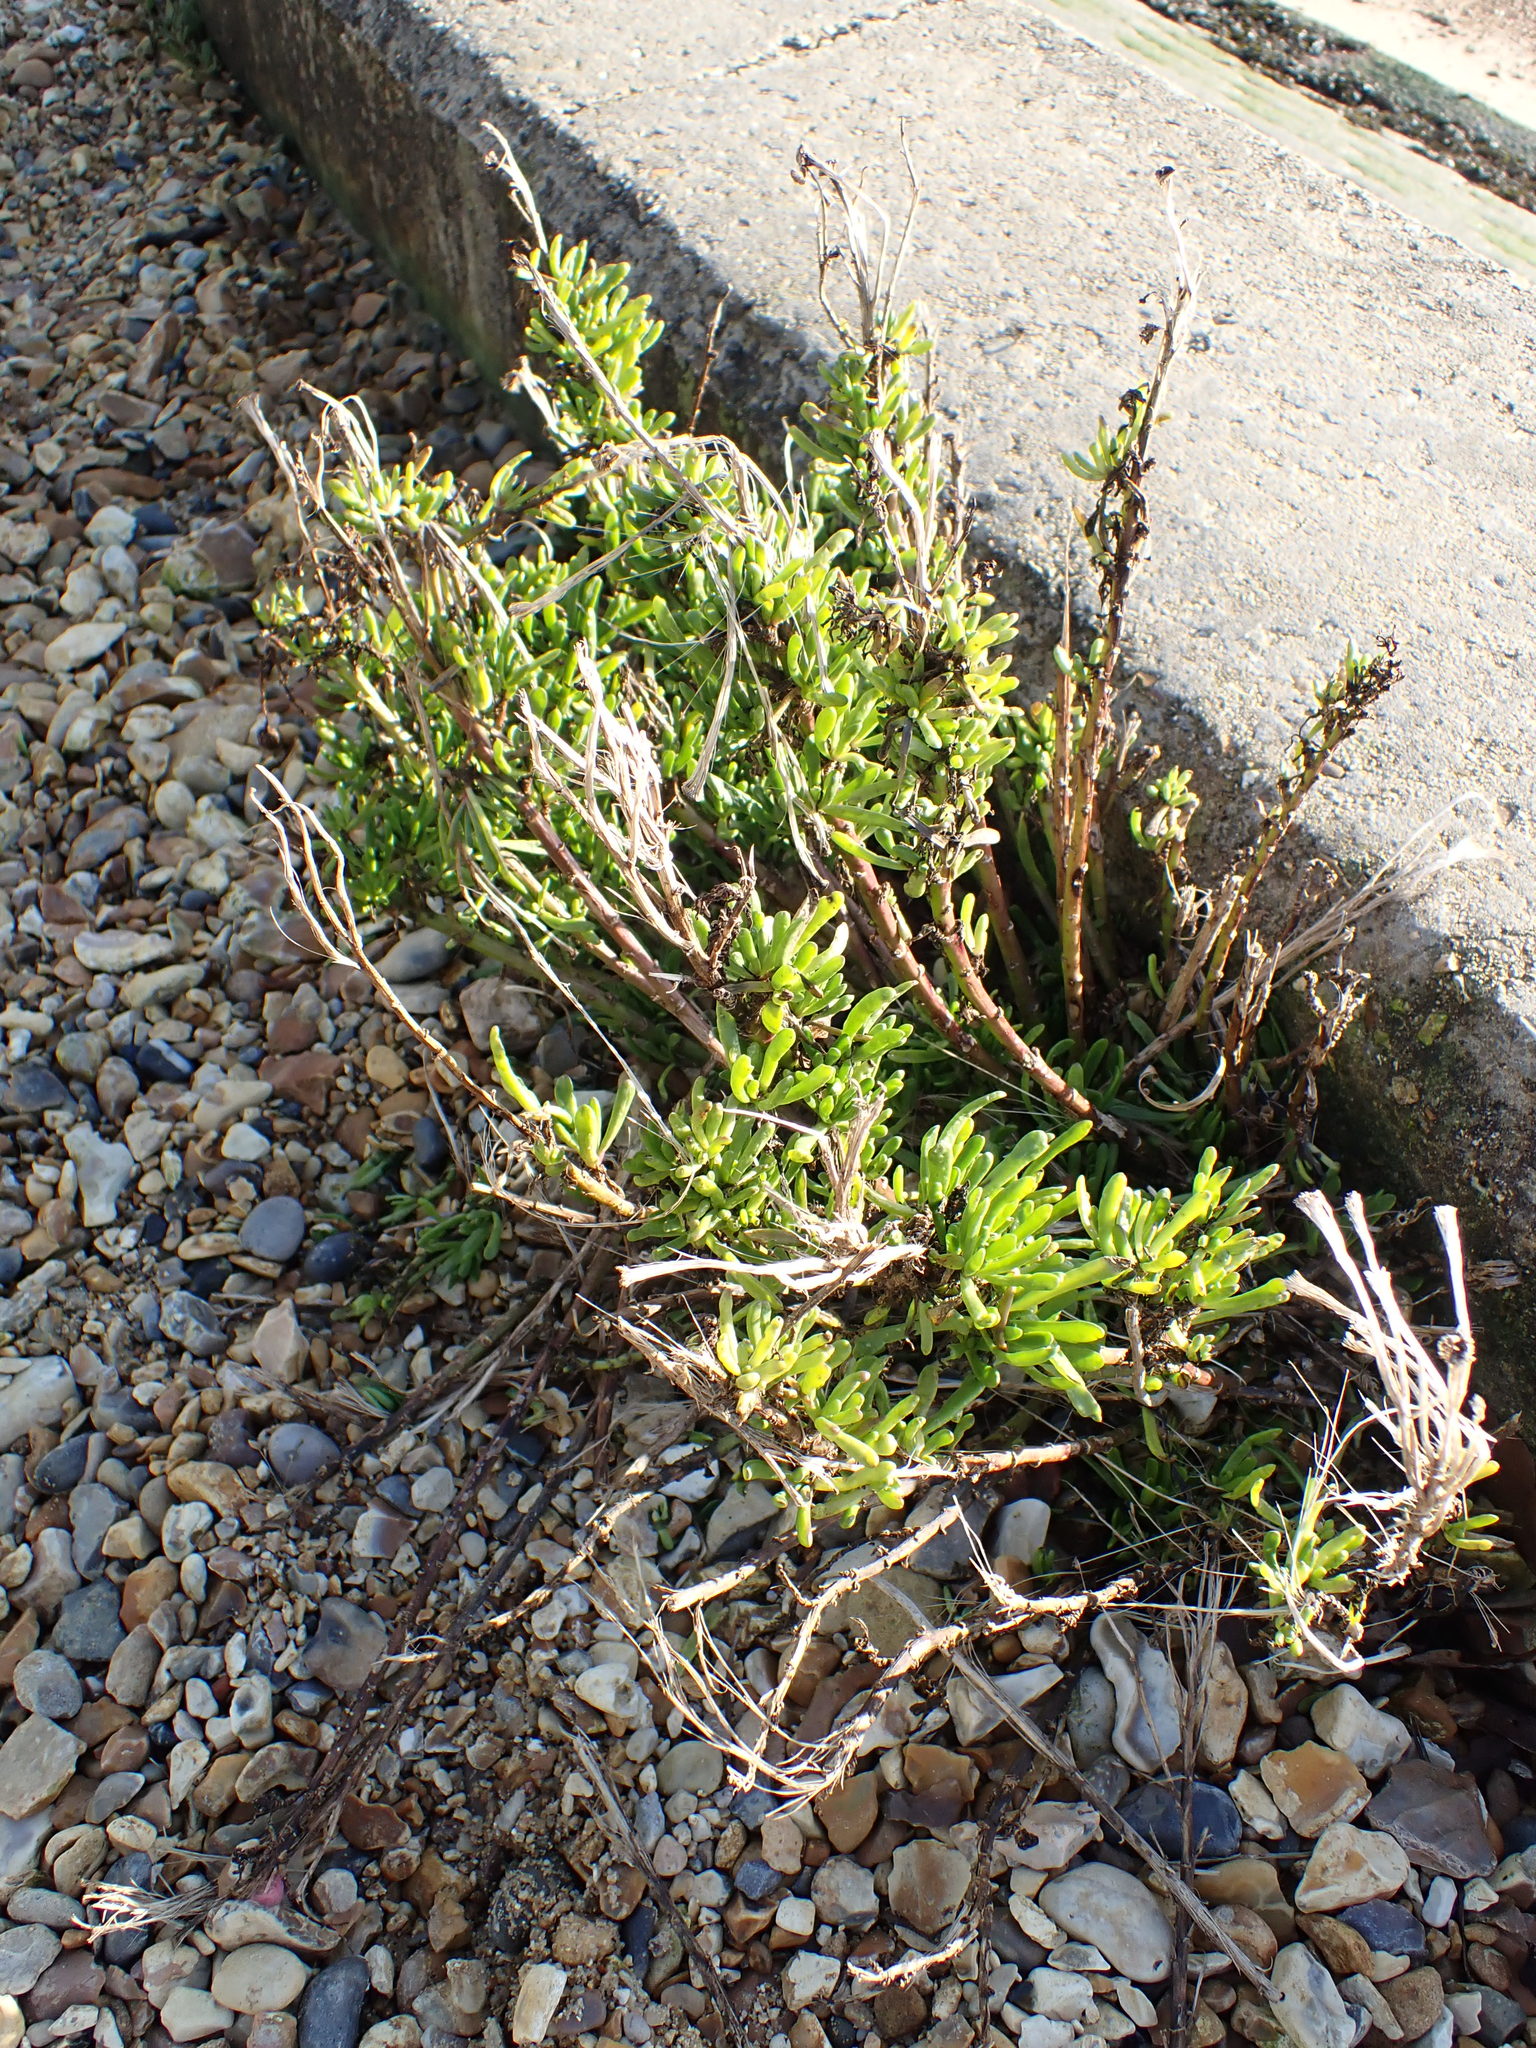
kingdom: Plantae
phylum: Tracheophyta
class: Magnoliopsida
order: Asterales
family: Asteraceae
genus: Limbarda
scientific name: Limbarda crithmoides
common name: Golden samphire
